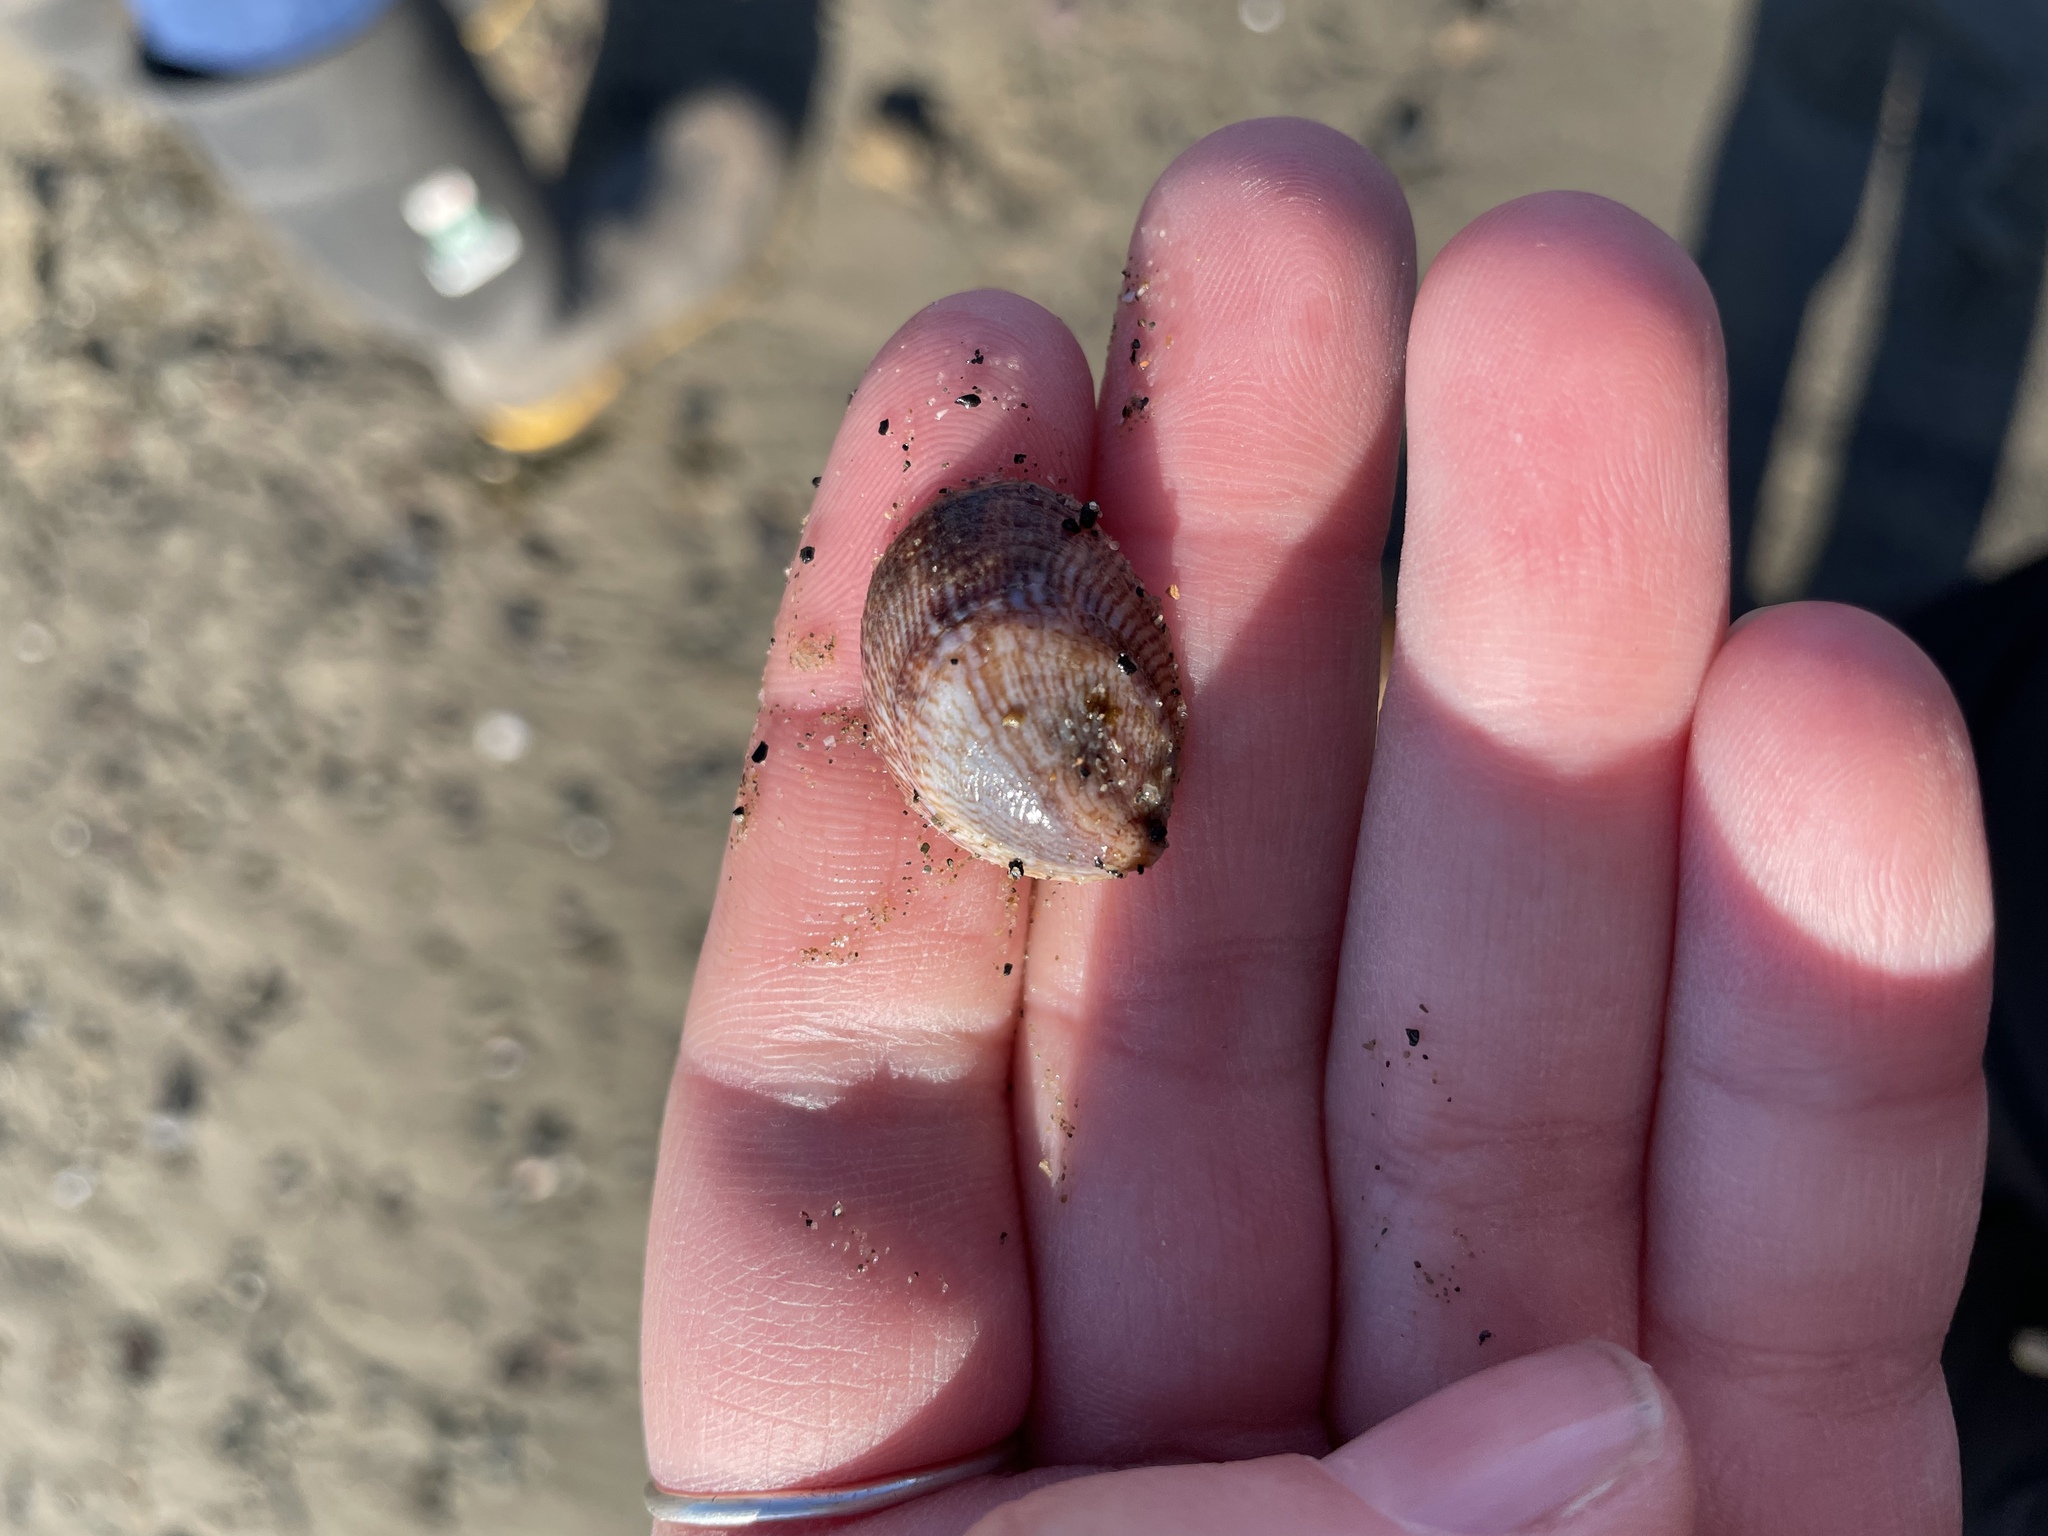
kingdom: Animalia
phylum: Mollusca
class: Gastropoda
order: Littorinimorpha
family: Calyptraeidae
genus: Crepidula
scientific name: Crepidula fornicata
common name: Slipper limpet
